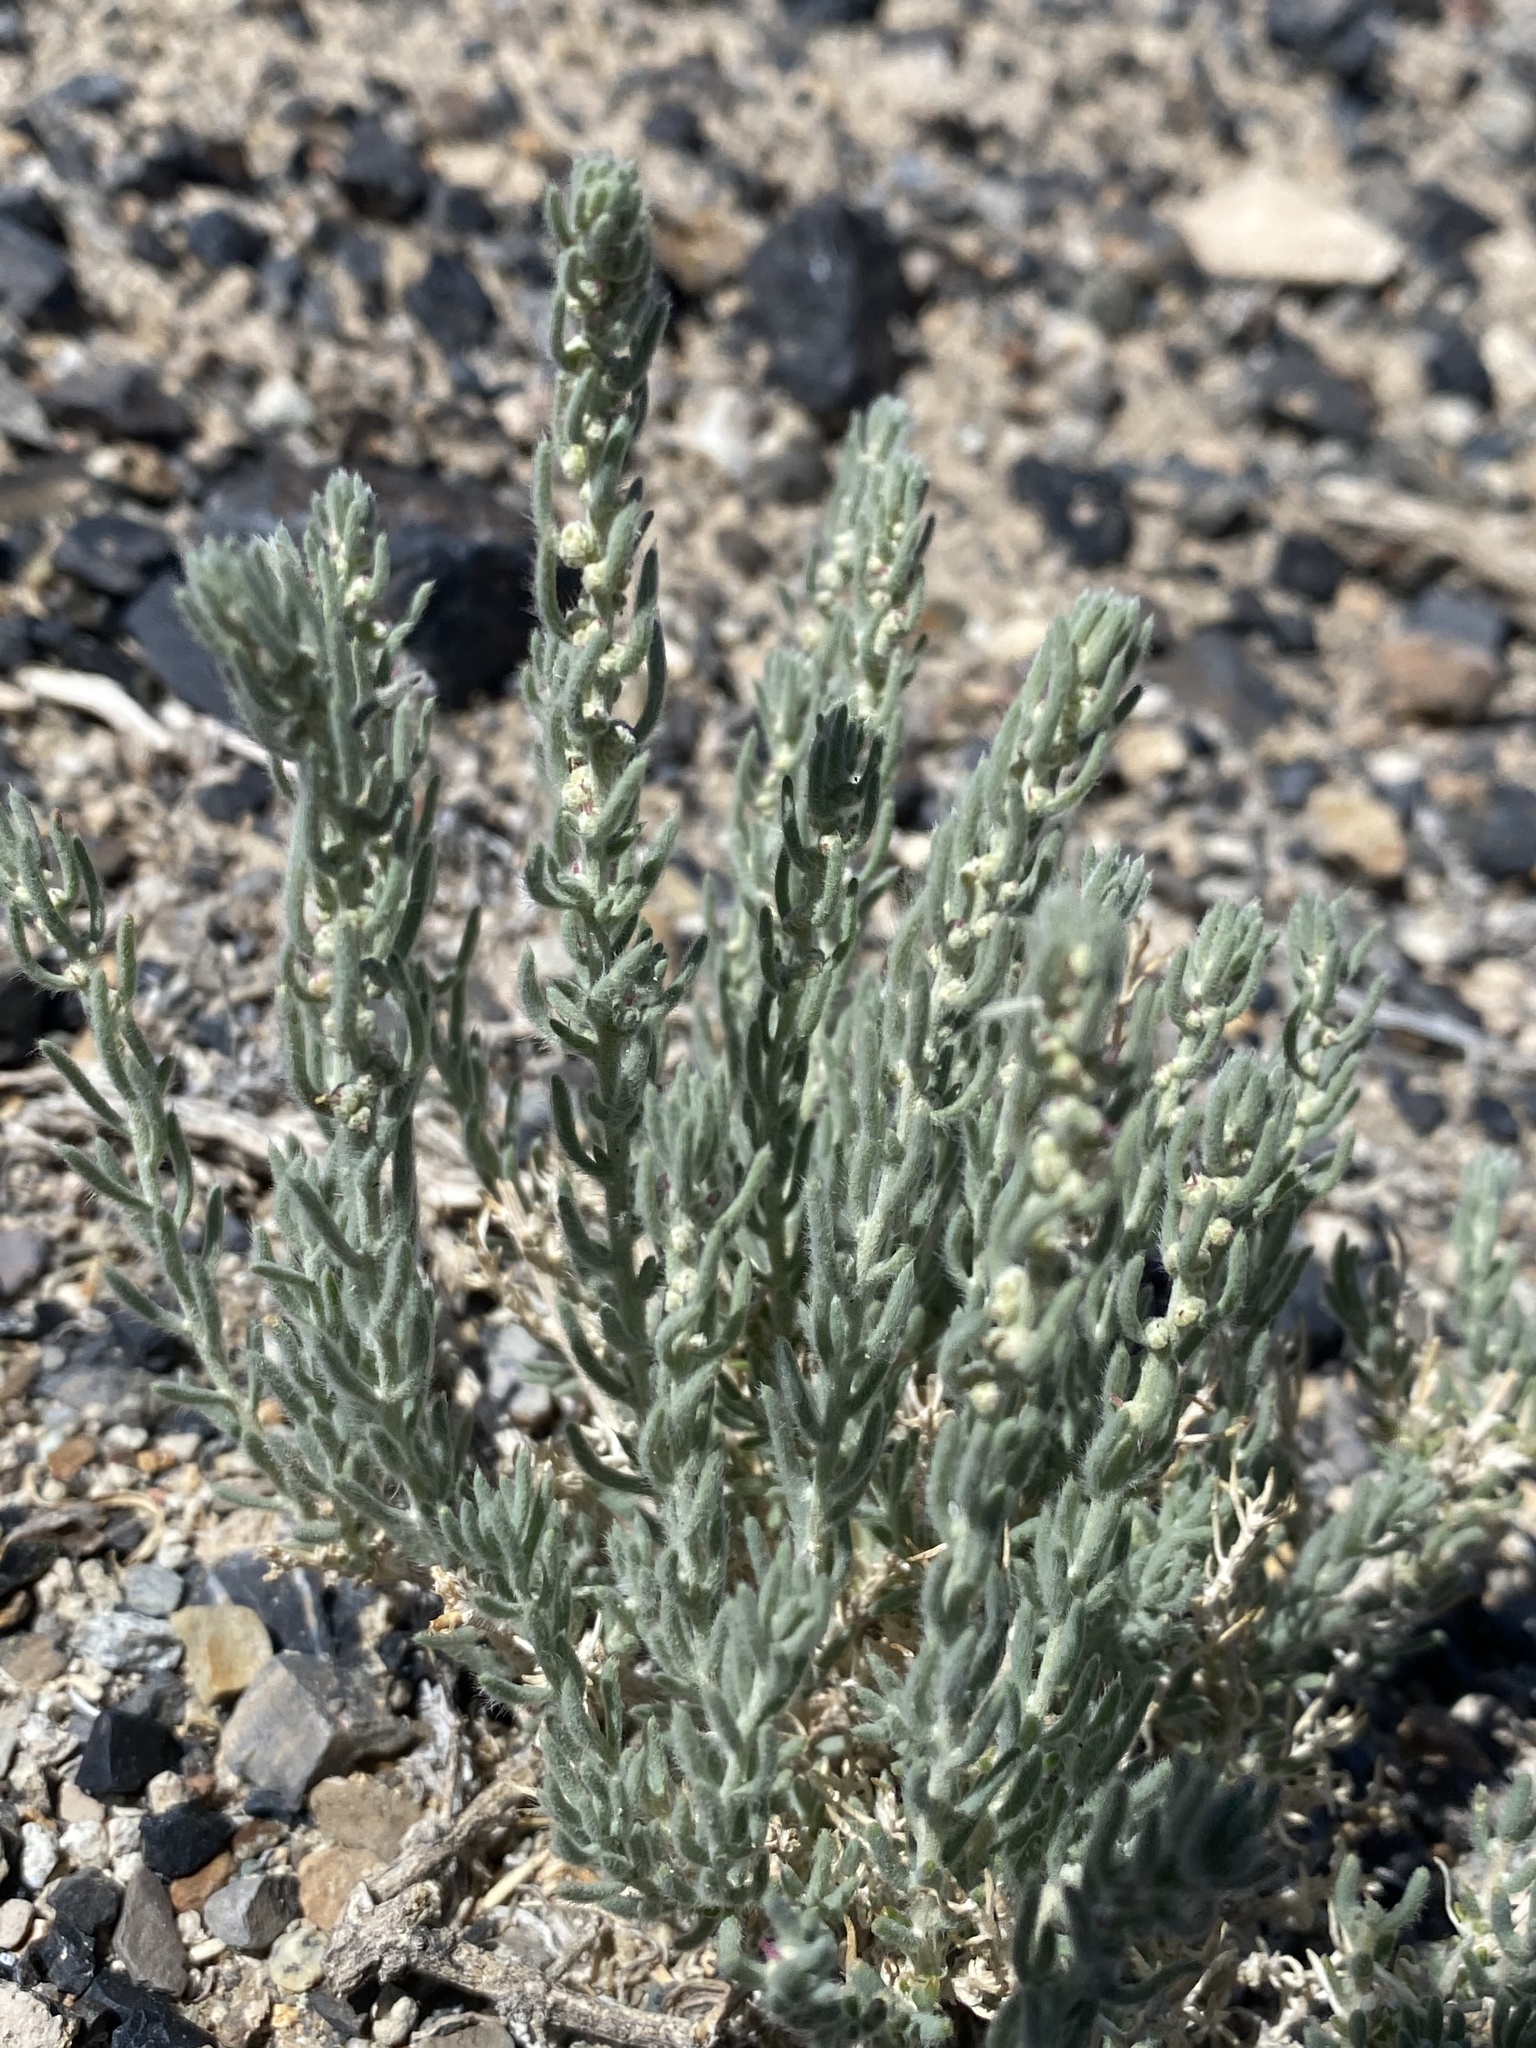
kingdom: Plantae
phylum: Tracheophyta
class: Magnoliopsida
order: Caryophyllales
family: Amaranthaceae
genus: Neokochia
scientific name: Neokochia americana
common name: Perennial summer-cypress
